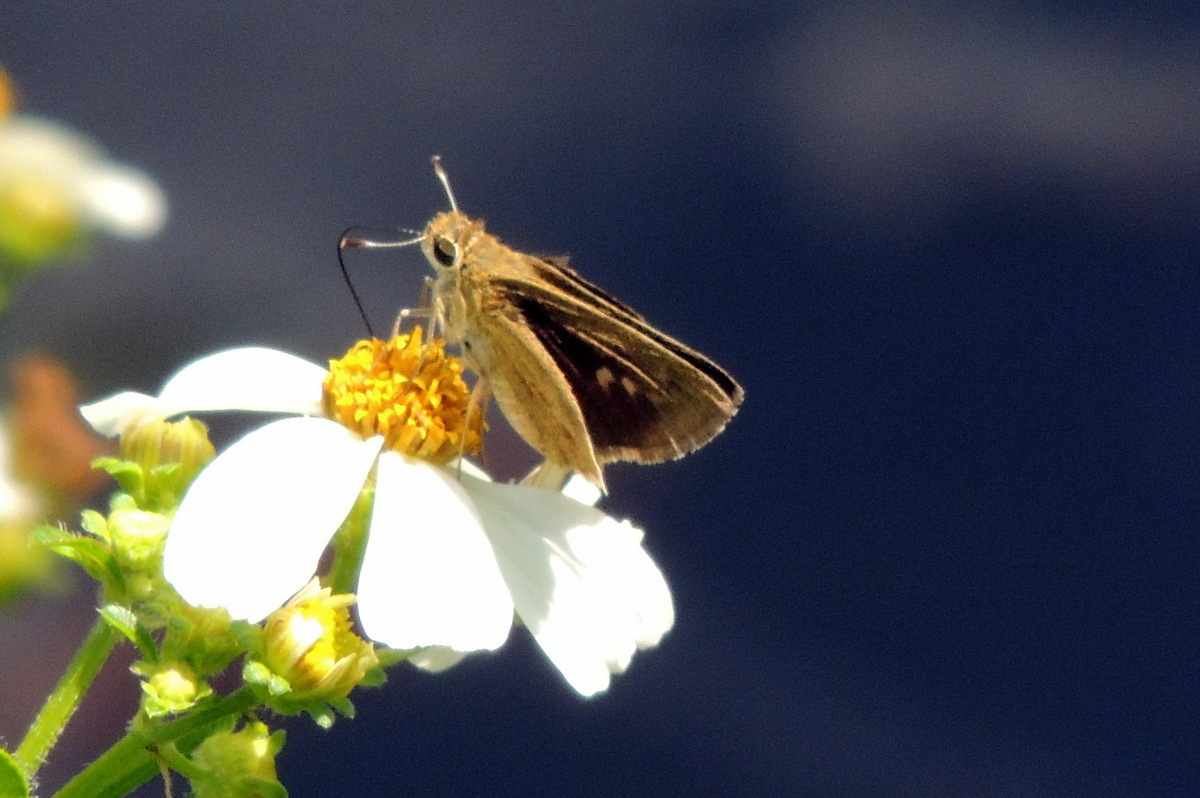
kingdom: Animalia
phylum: Arthropoda
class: Insecta
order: Lepidoptera
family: Hesperiidae
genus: Polites
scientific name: Polites vibex
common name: Whirlabout
